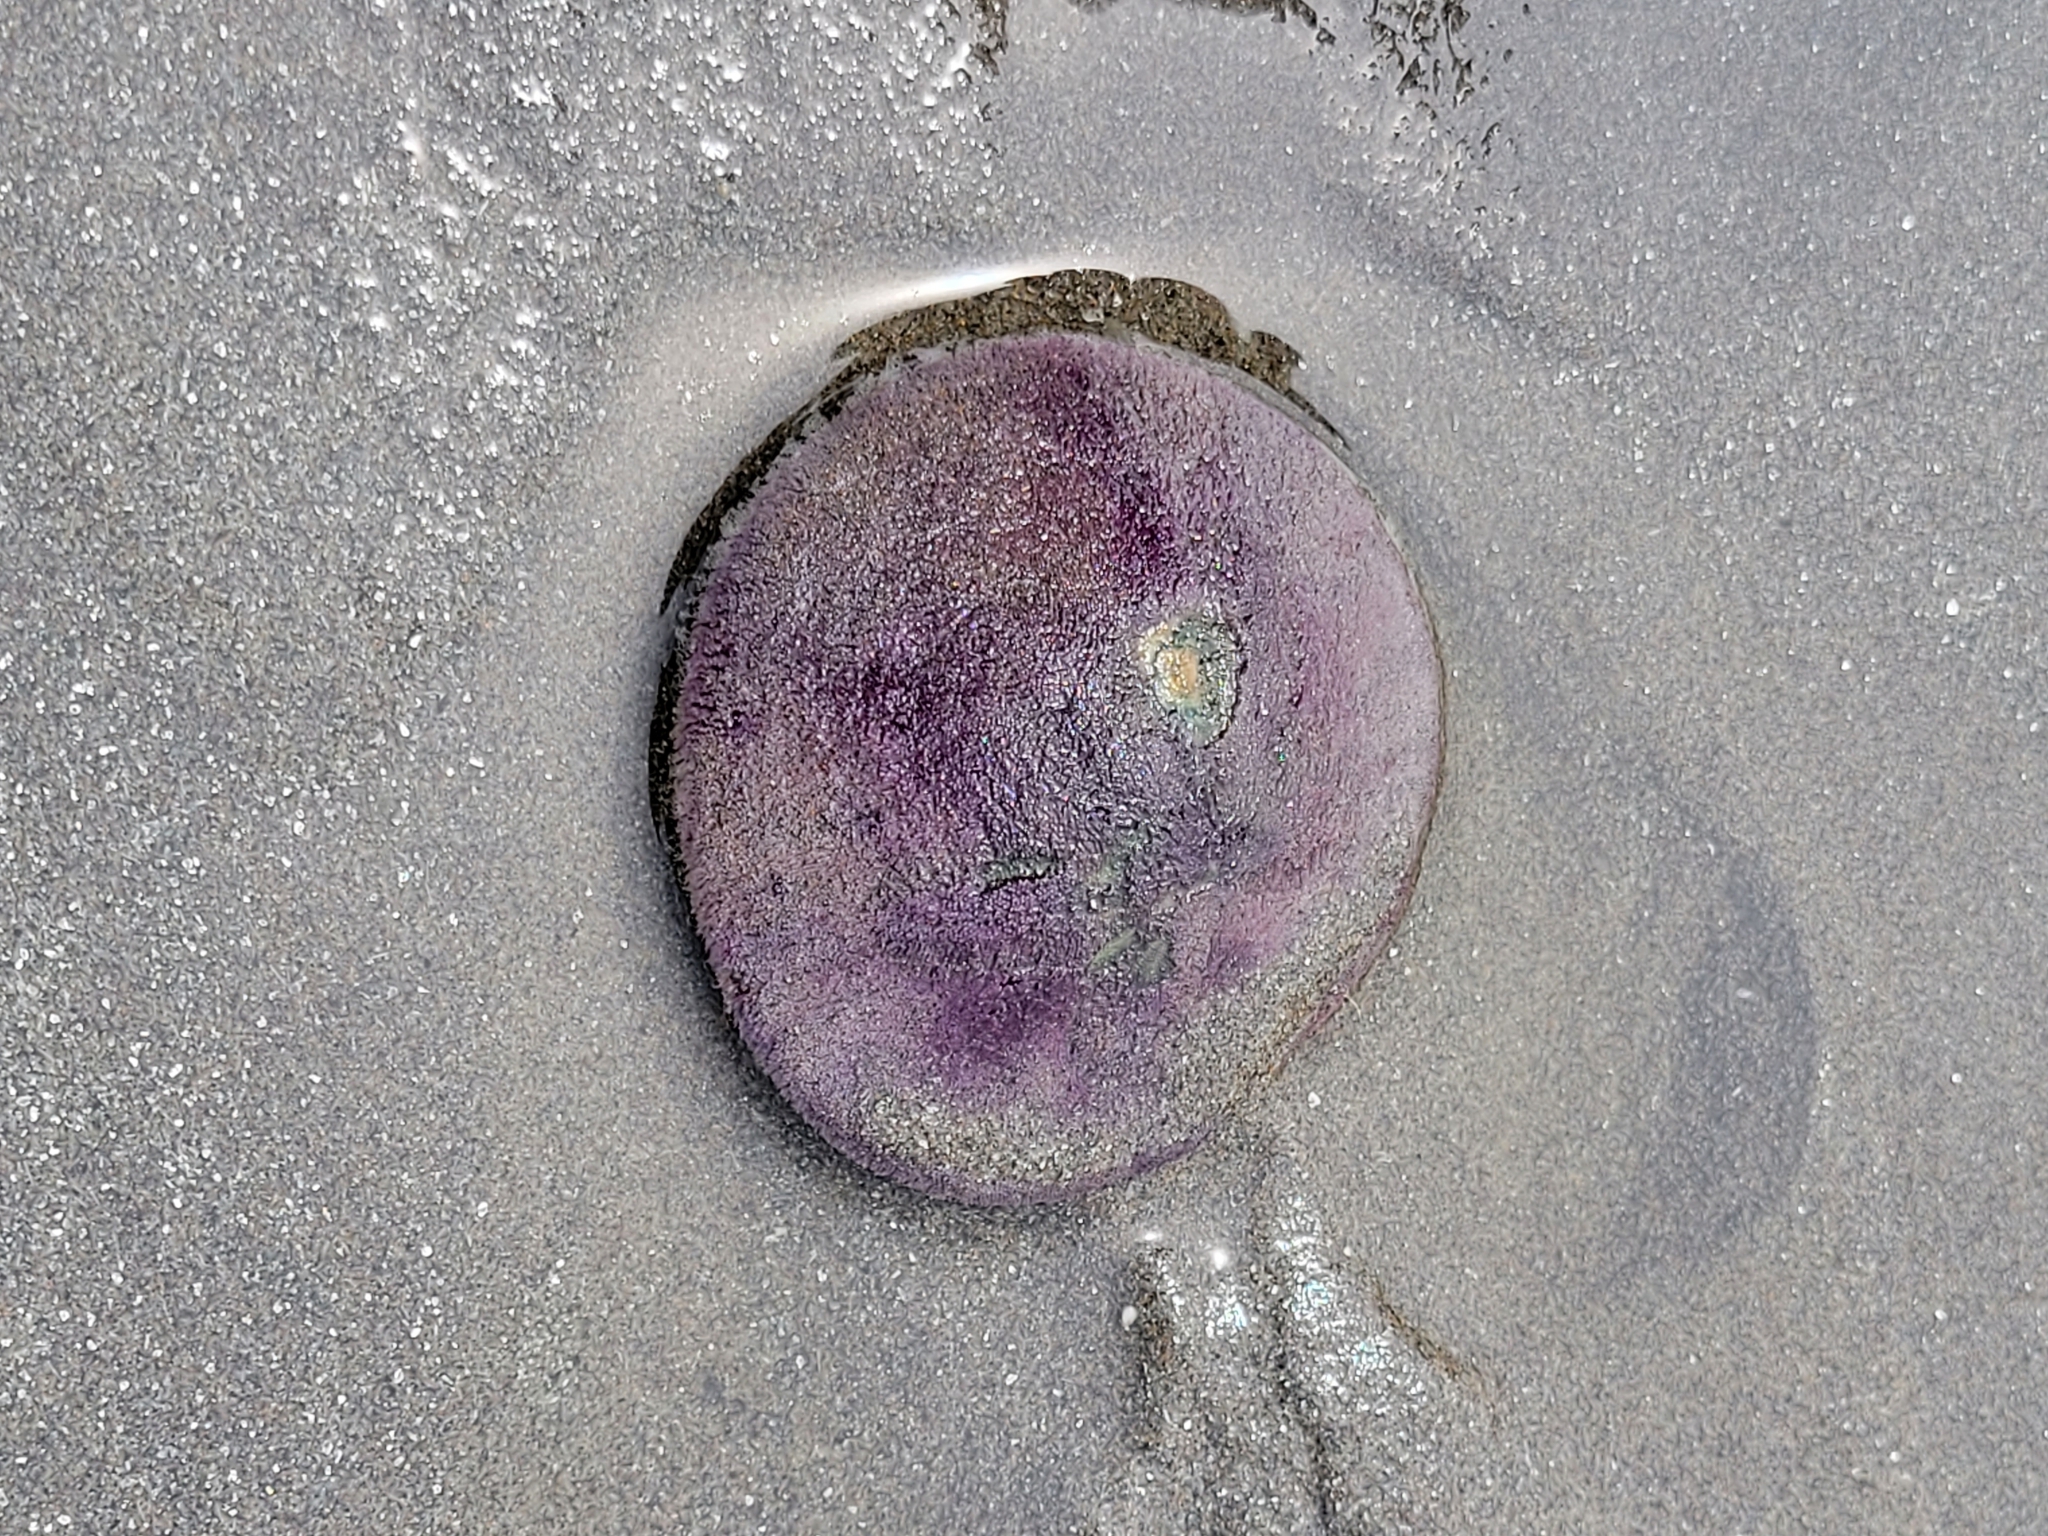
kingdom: Animalia
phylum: Echinodermata
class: Echinoidea
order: Echinolampadacea
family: Dendrasteridae
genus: Dendraster
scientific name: Dendraster excentricus
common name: Eccentric sand dollar sea urchin
